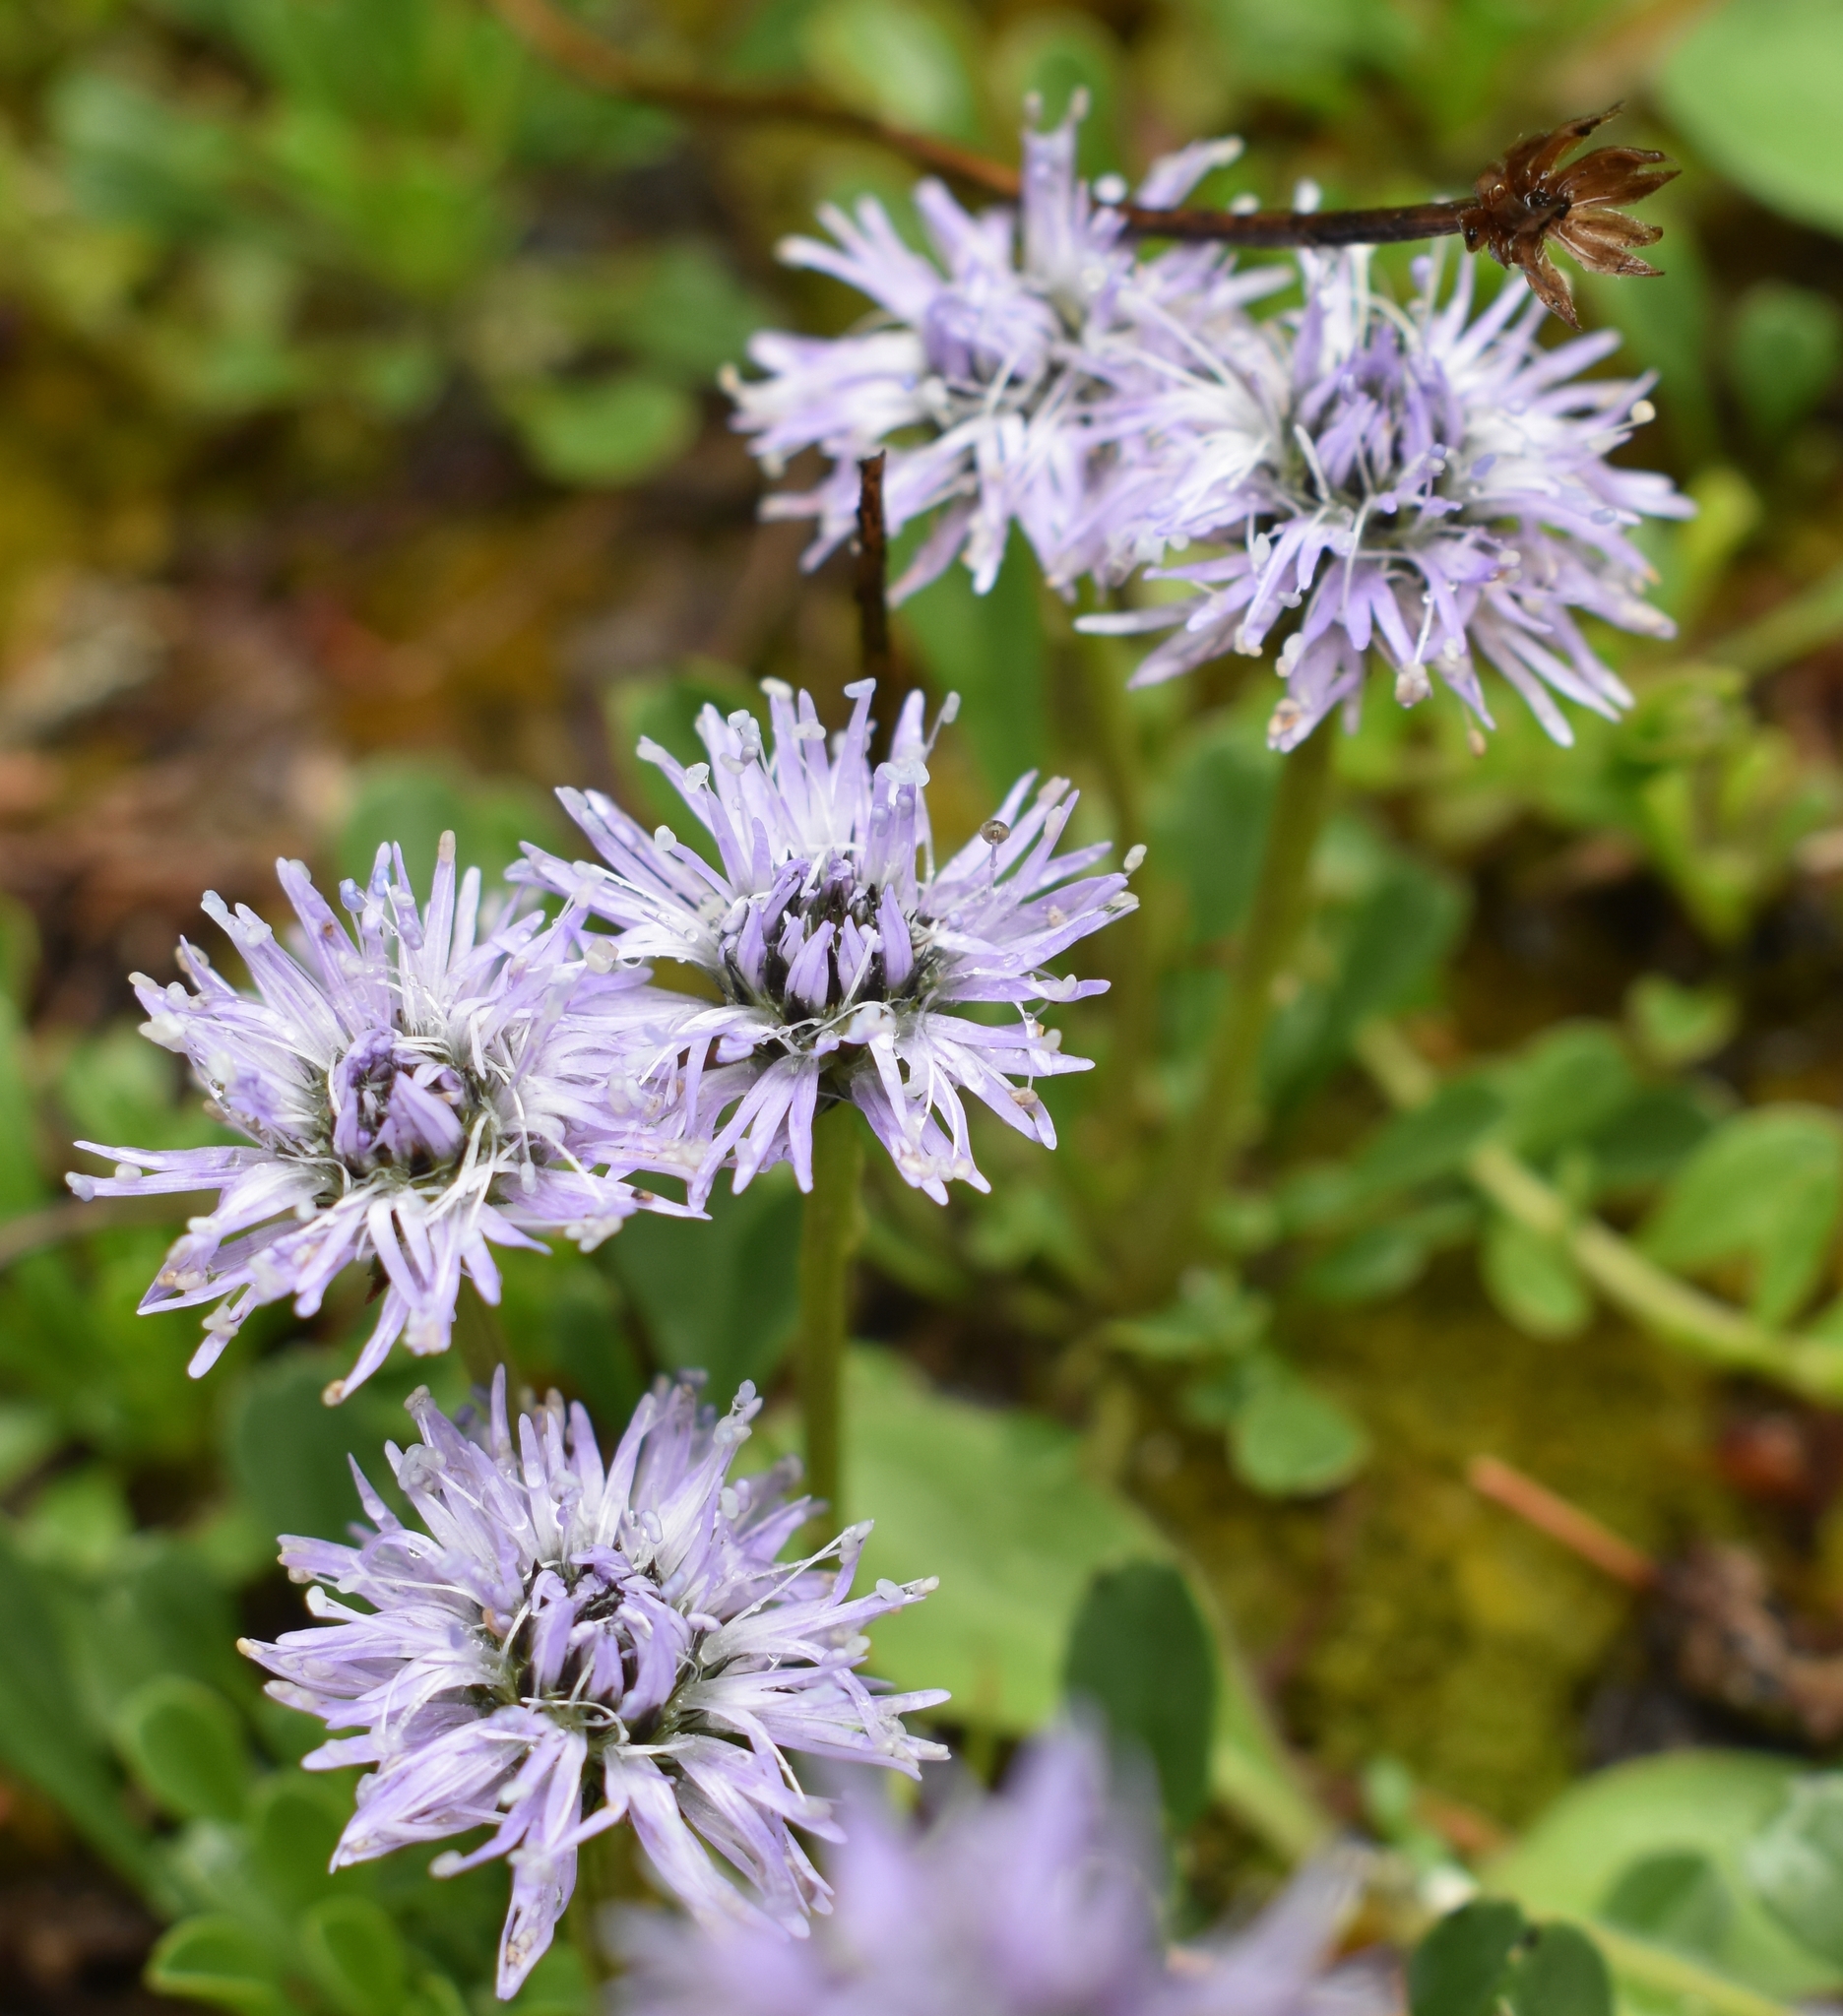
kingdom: Plantae
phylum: Tracheophyta
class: Magnoliopsida
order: Lamiales
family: Plantaginaceae
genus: Globularia
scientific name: Globularia cordifolia
